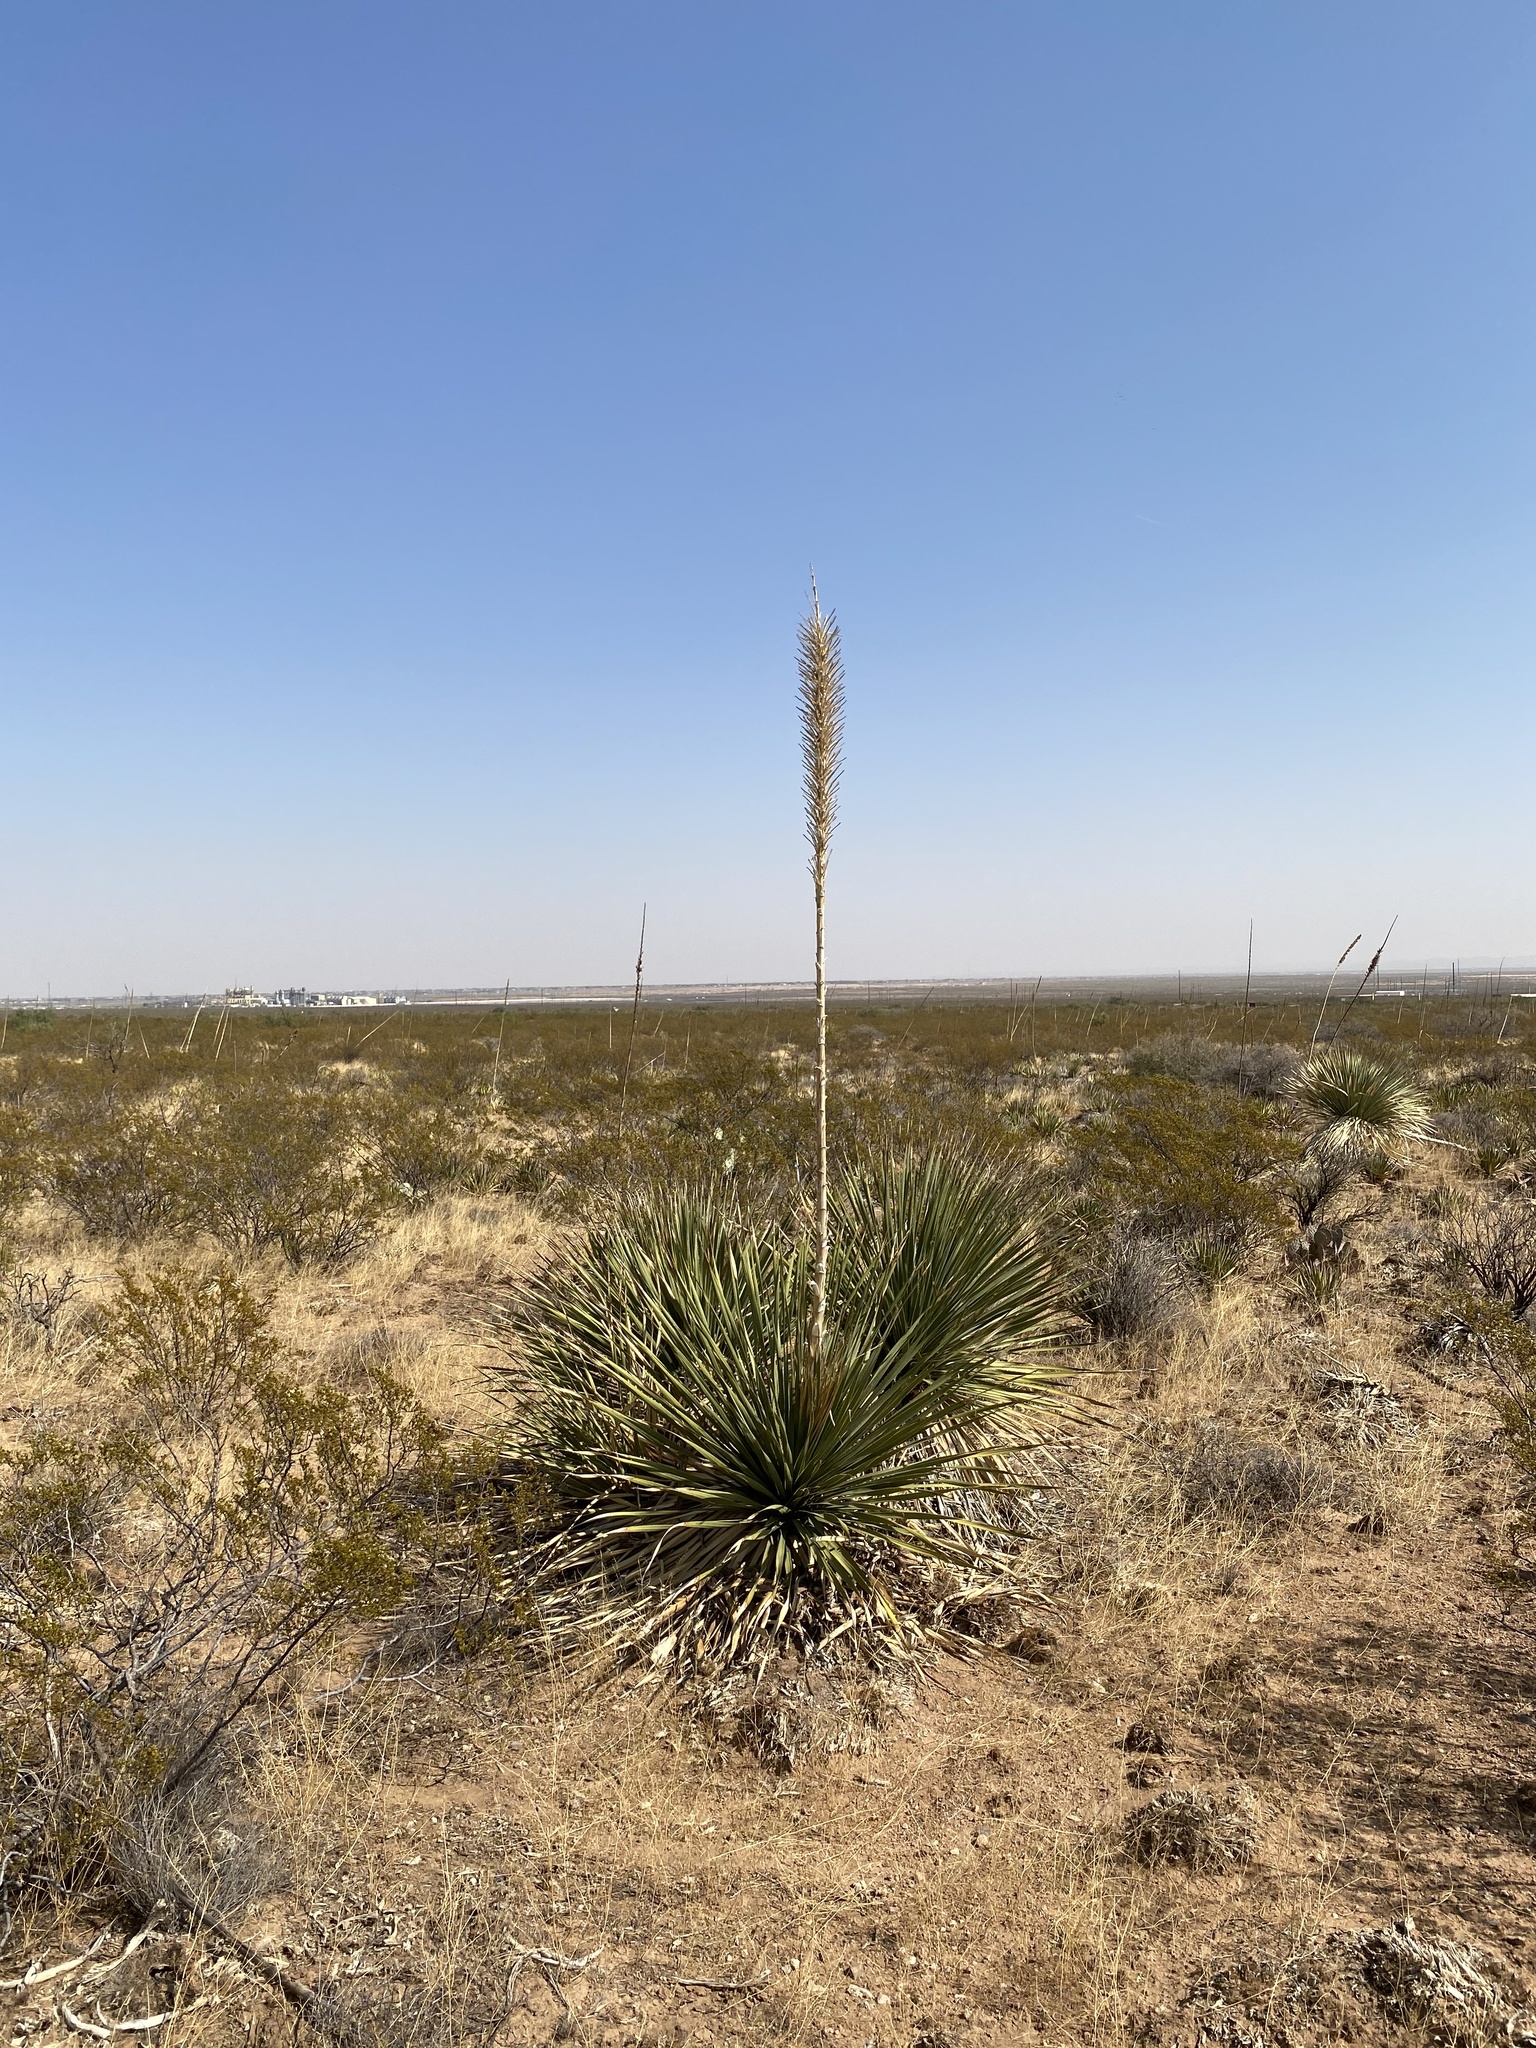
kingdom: Plantae
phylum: Tracheophyta
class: Liliopsida
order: Asparagales
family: Asparagaceae
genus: Dasylirion
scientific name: Dasylirion wheeleri
